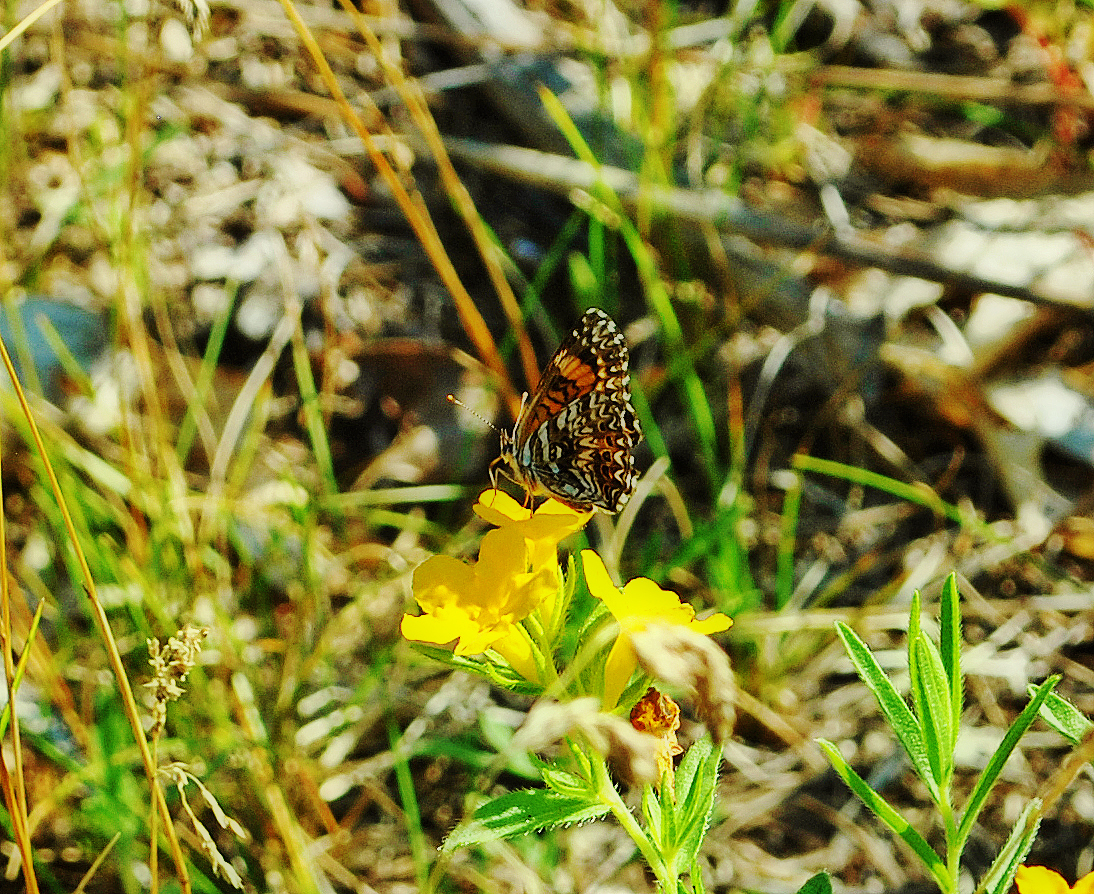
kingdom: Animalia
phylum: Arthropoda
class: Insecta
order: Lepidoptera
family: Nymphalidae
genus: Chlosyne
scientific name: Chlosyne gorgone
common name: Gorgone checkerspot
